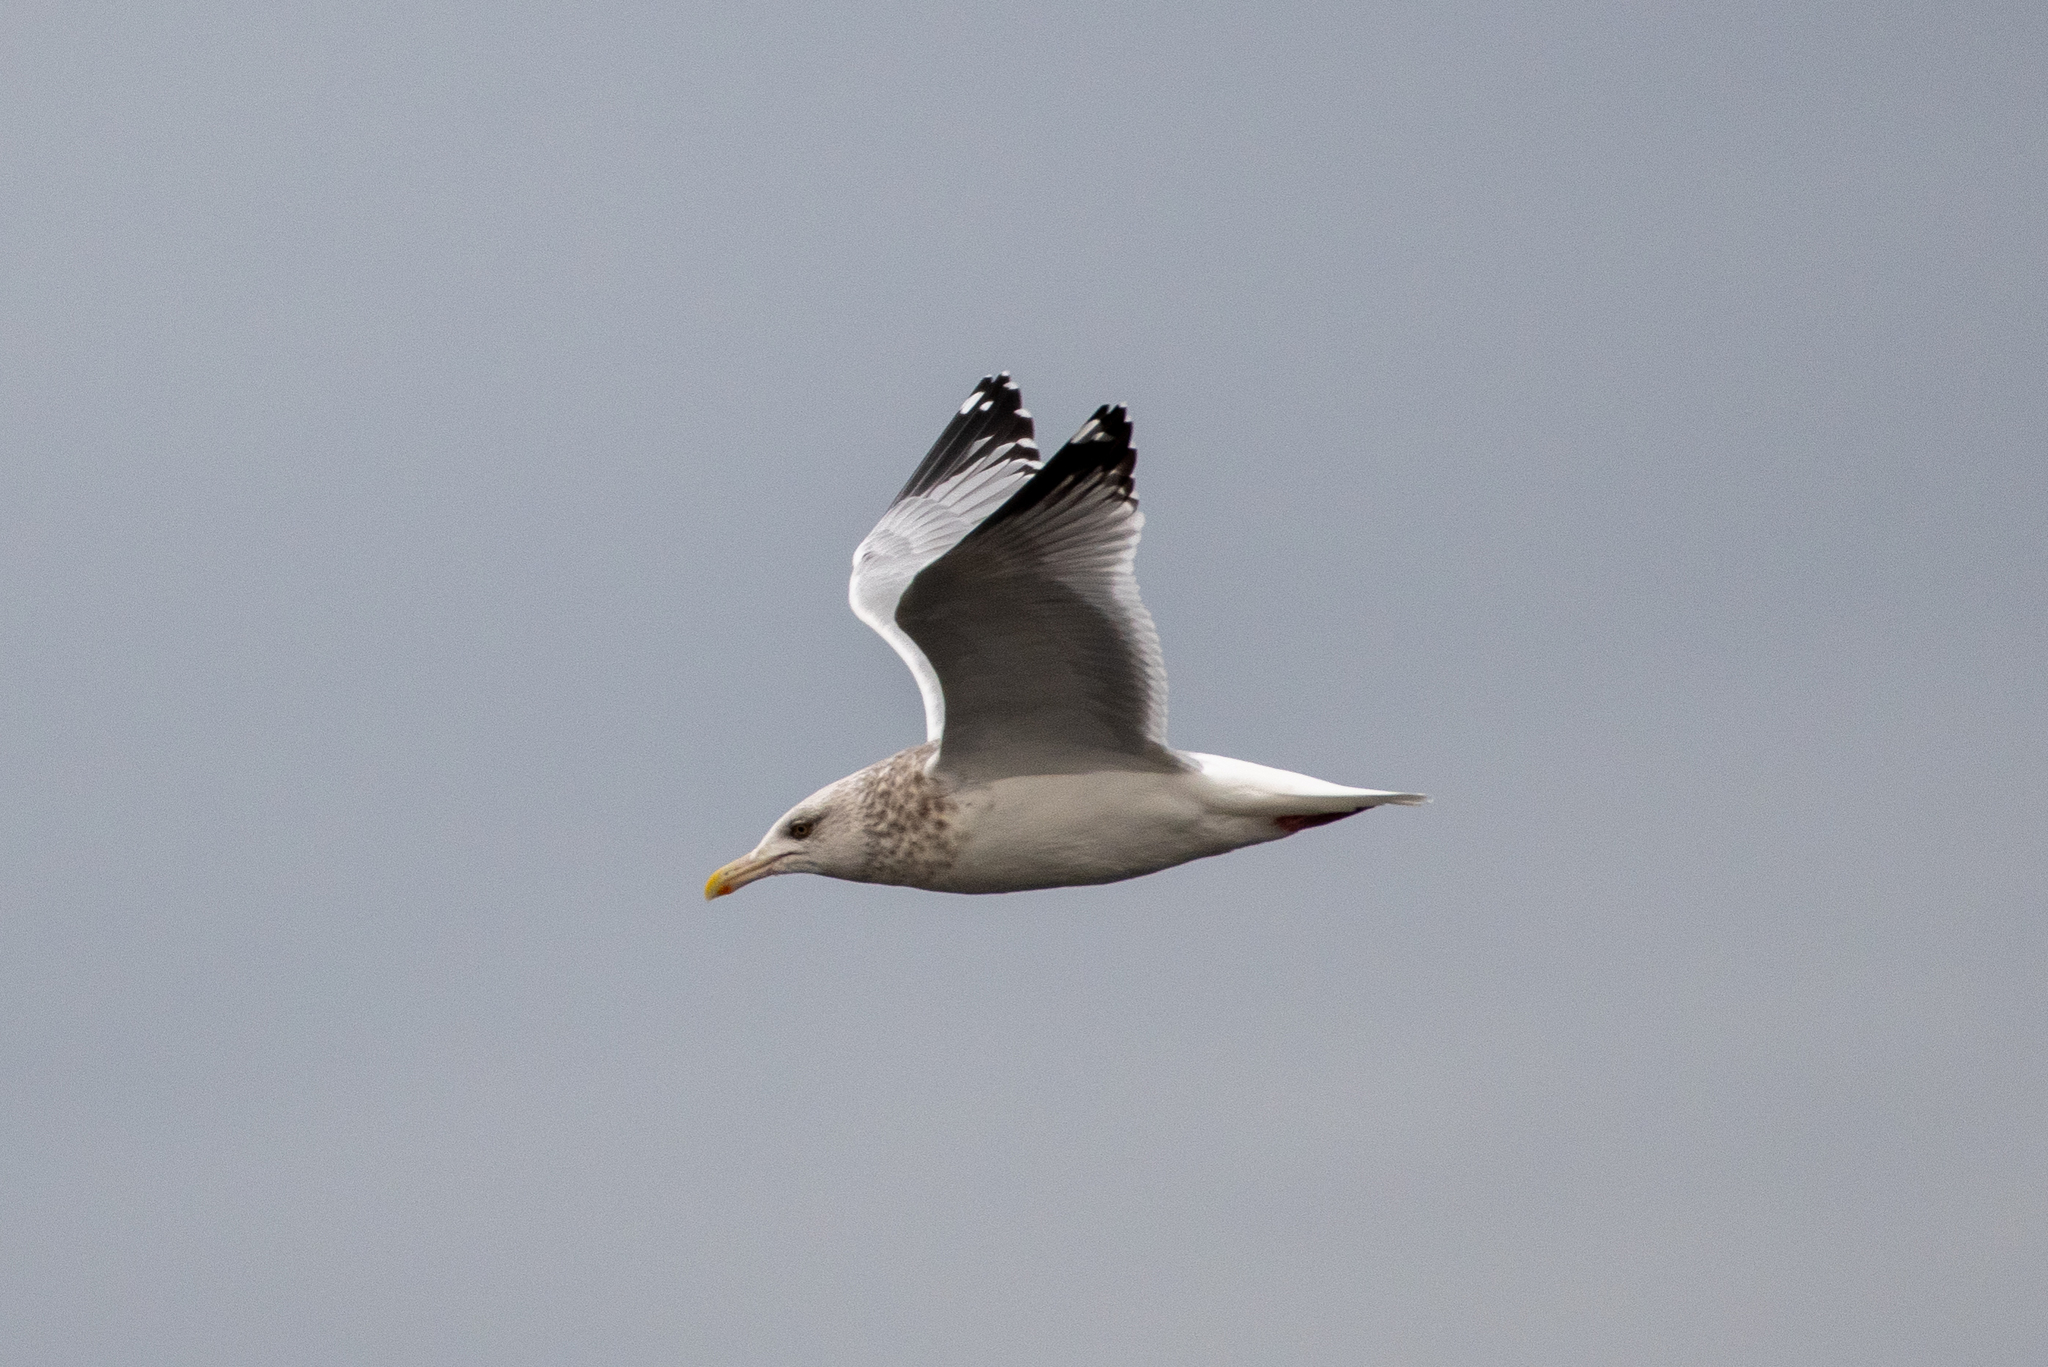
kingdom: Animalia
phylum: Chordata
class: Aves
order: Charadriiformes
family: Laridae
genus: Larus
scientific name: Larus argentatus
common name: Herring gull
